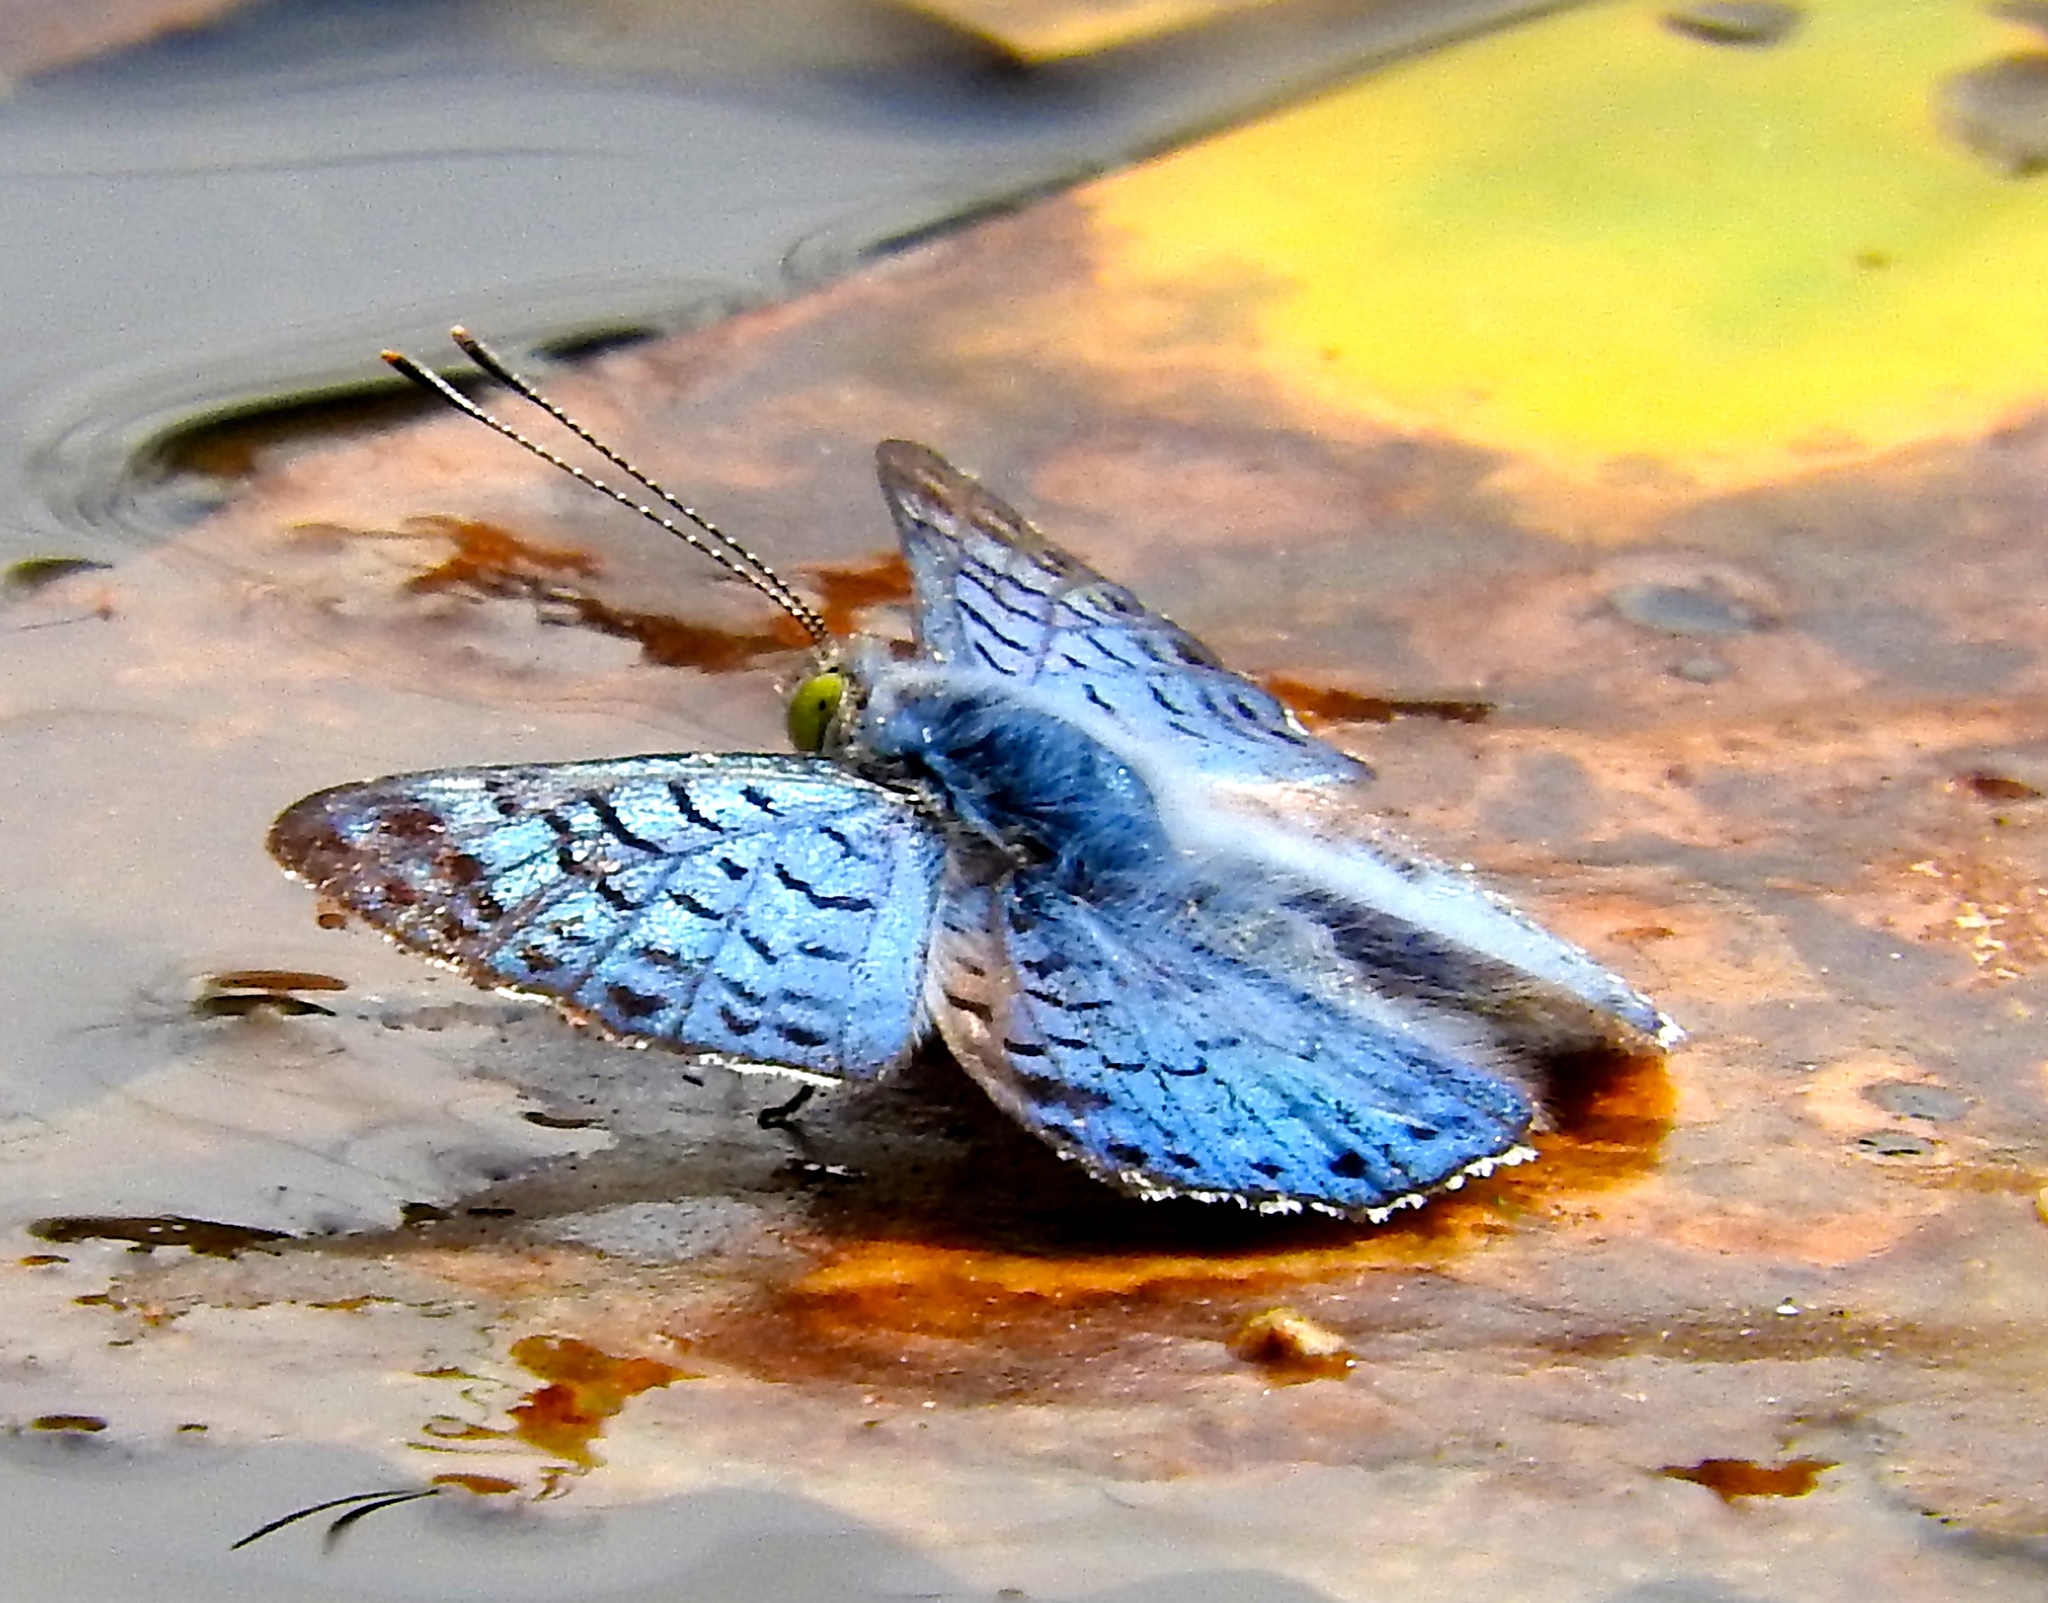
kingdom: Animalia
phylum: Arthropoda
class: Insecta
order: Lepidoptera
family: Riodinidae
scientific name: Riodinidae
